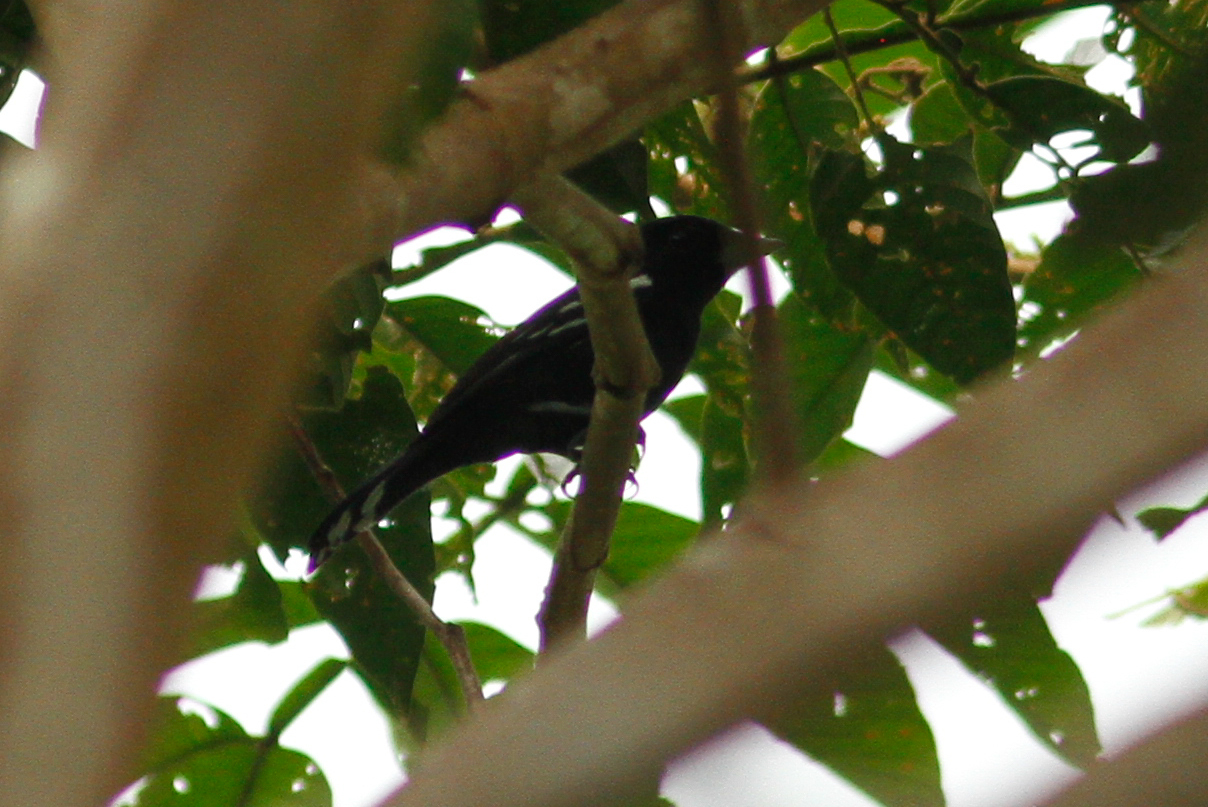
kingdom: Animalia
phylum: Chordata
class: Aves
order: Passeriformes
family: Cotingidae
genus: Pachyramphus
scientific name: Pachyramphus polychopterus
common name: White-winged becard
